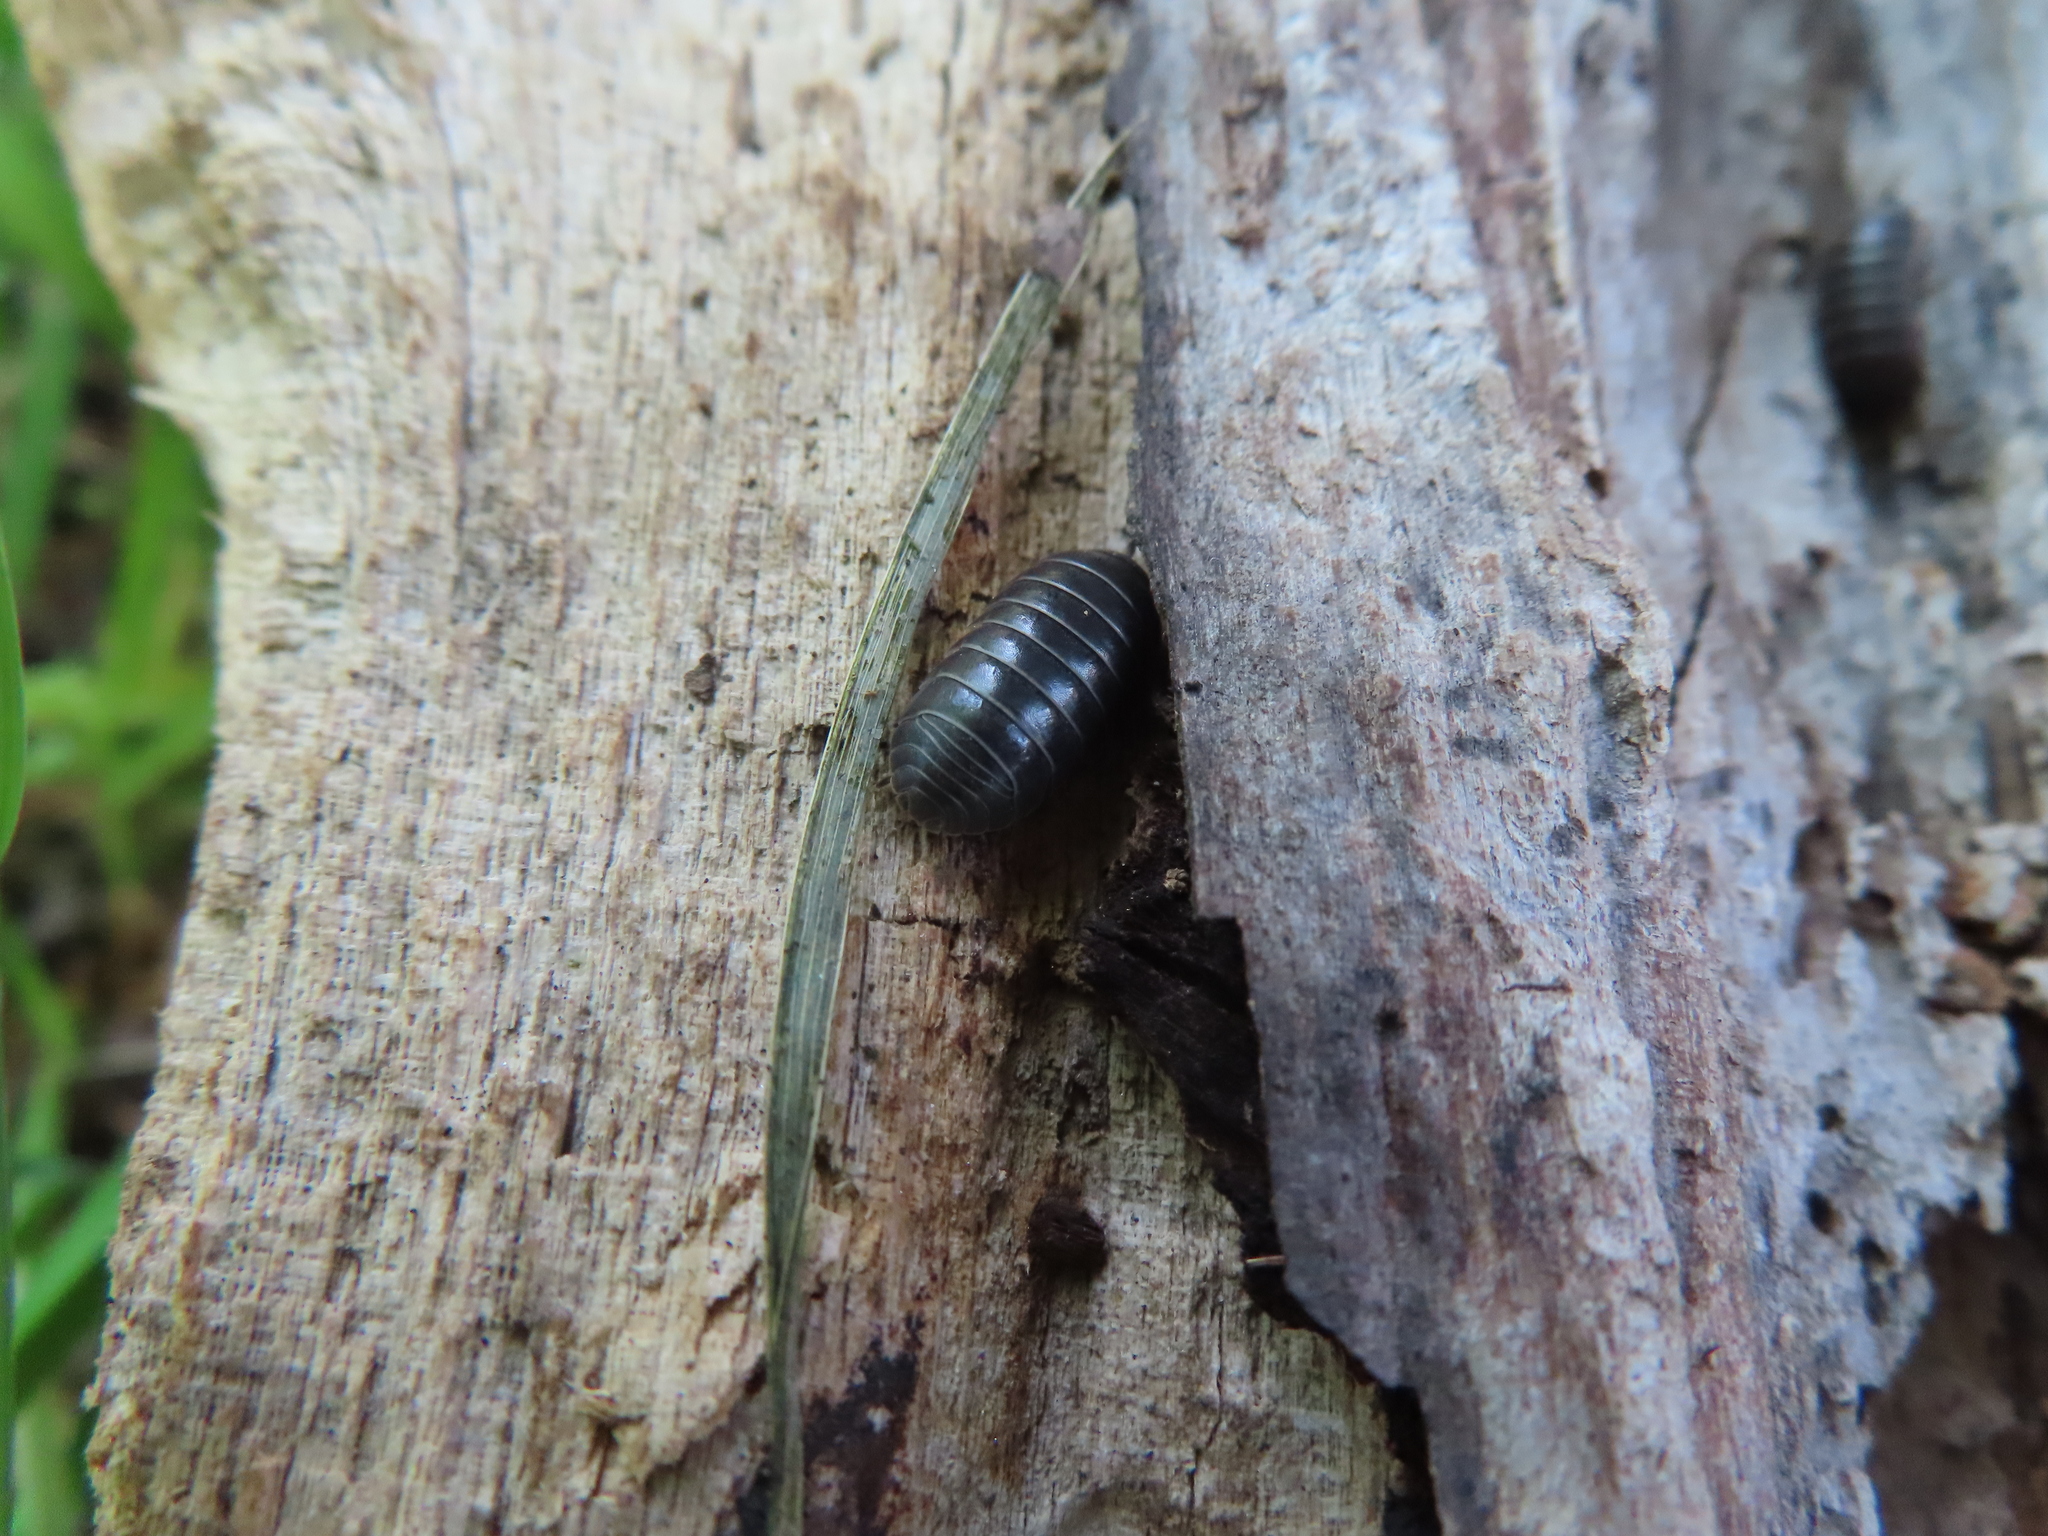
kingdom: Animalia
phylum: Arthropoda
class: Malacostraca
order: Isopoda
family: Armadillidiidae
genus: Armadillidium
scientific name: Armadillidium vulgare
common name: Common pill woodlouse
